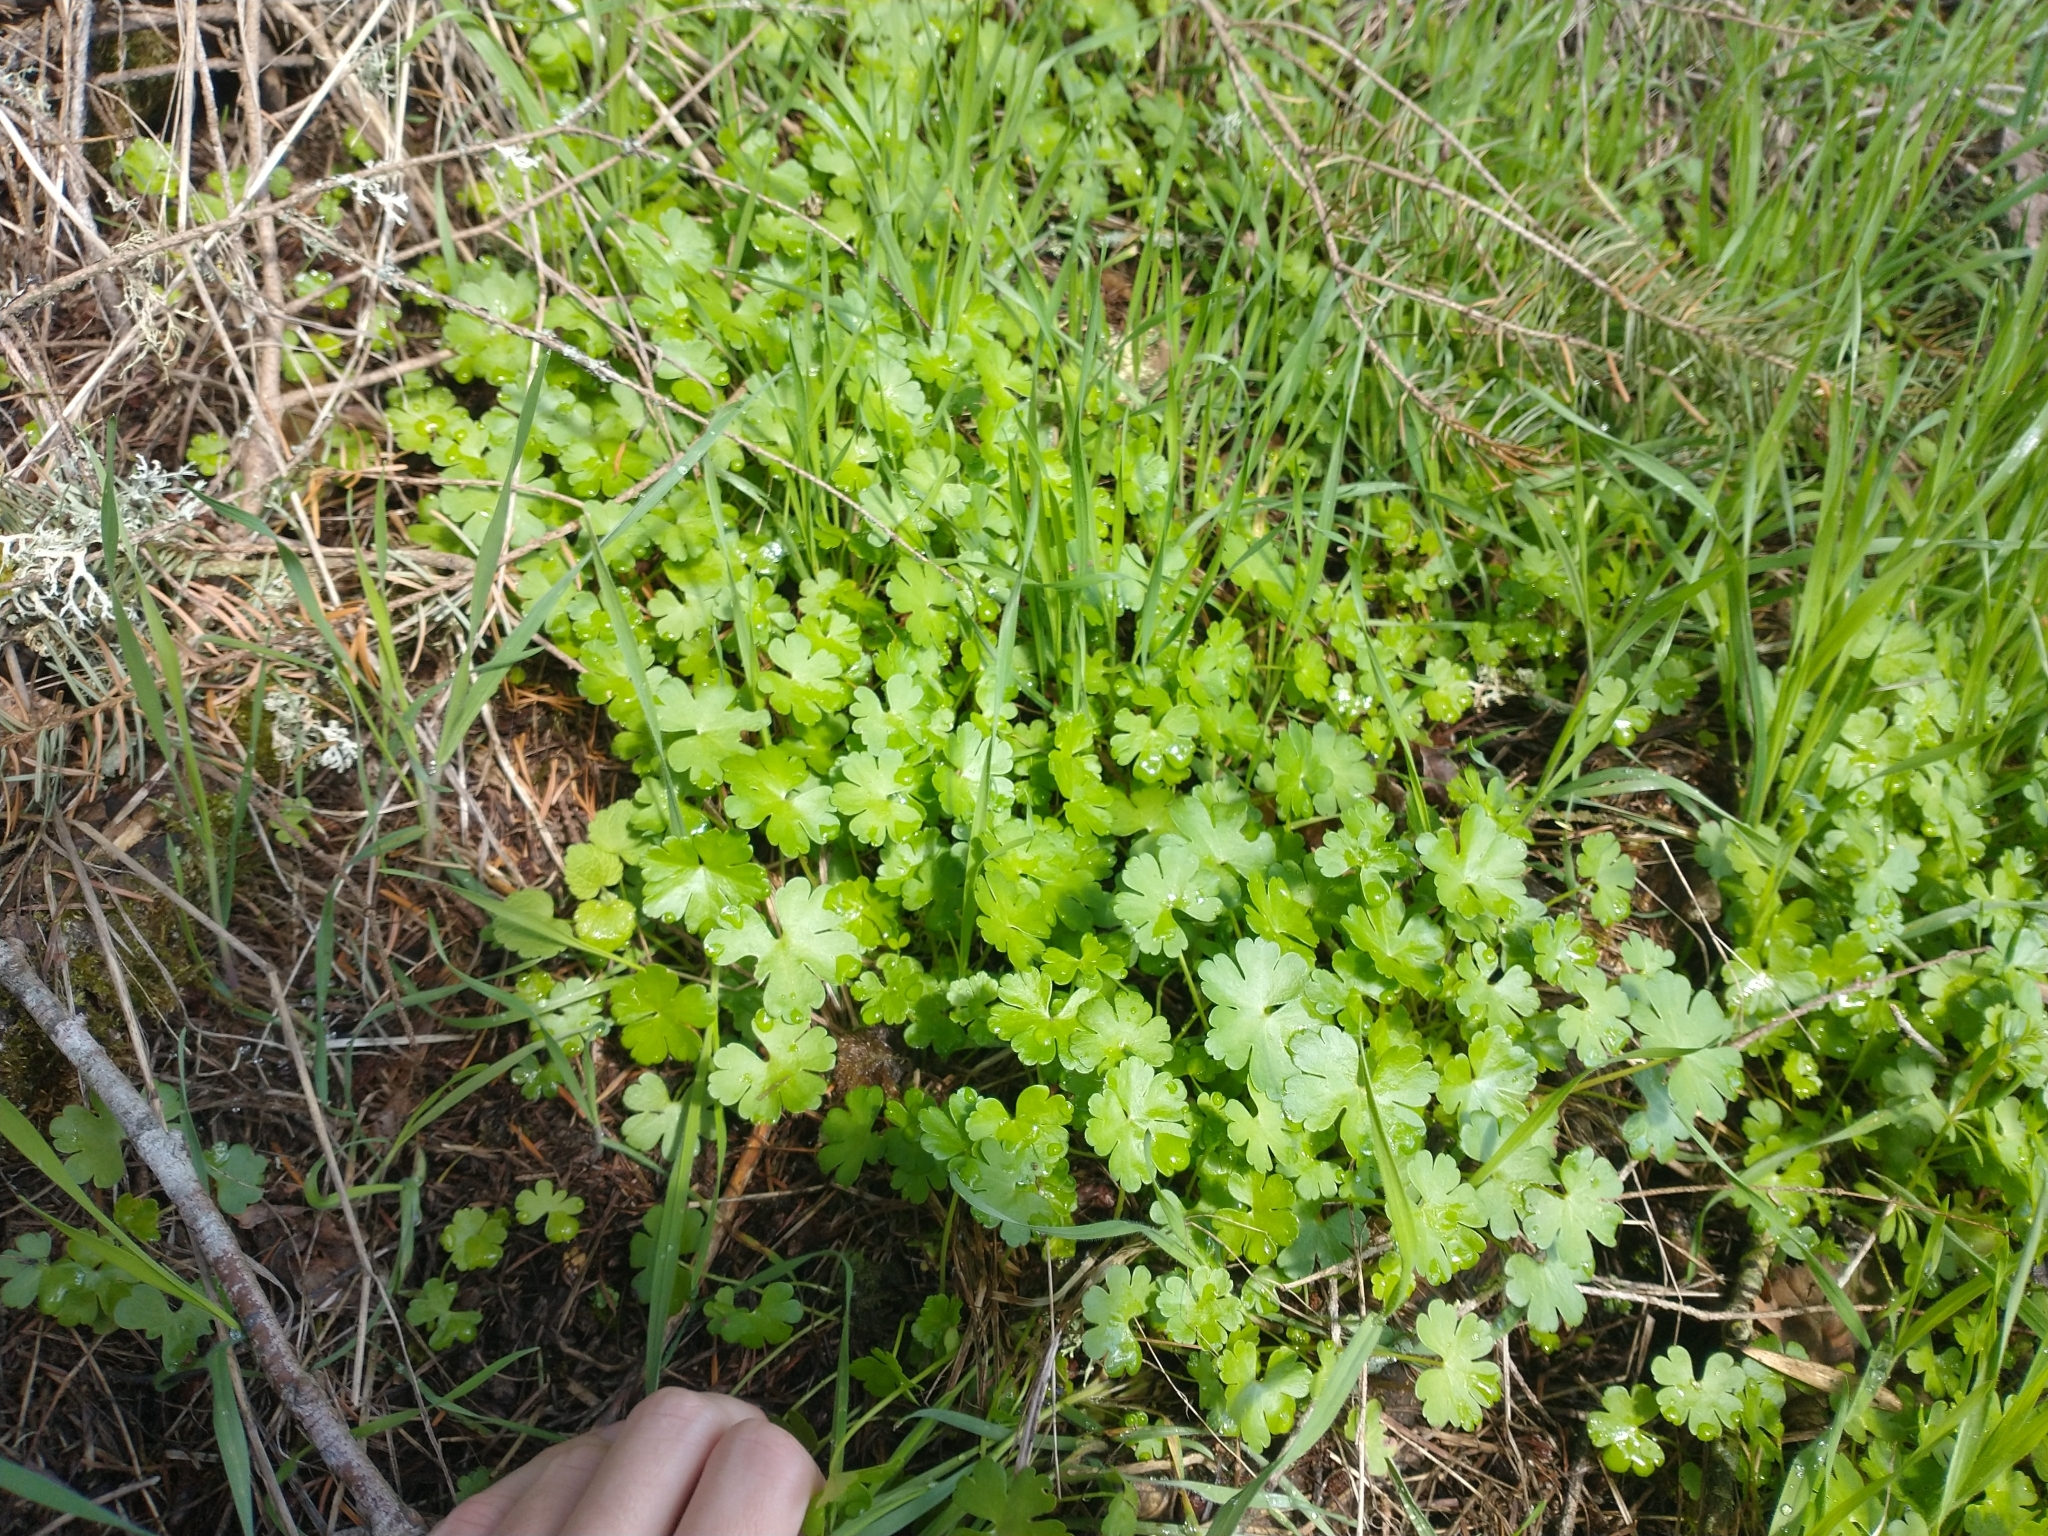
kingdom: Plantae
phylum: Tracheophyta
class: Magnoliopsida
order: Geraniales
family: Geraniaceae
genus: Geranium
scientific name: Geranium lucidum
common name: Shining crane's-bill
